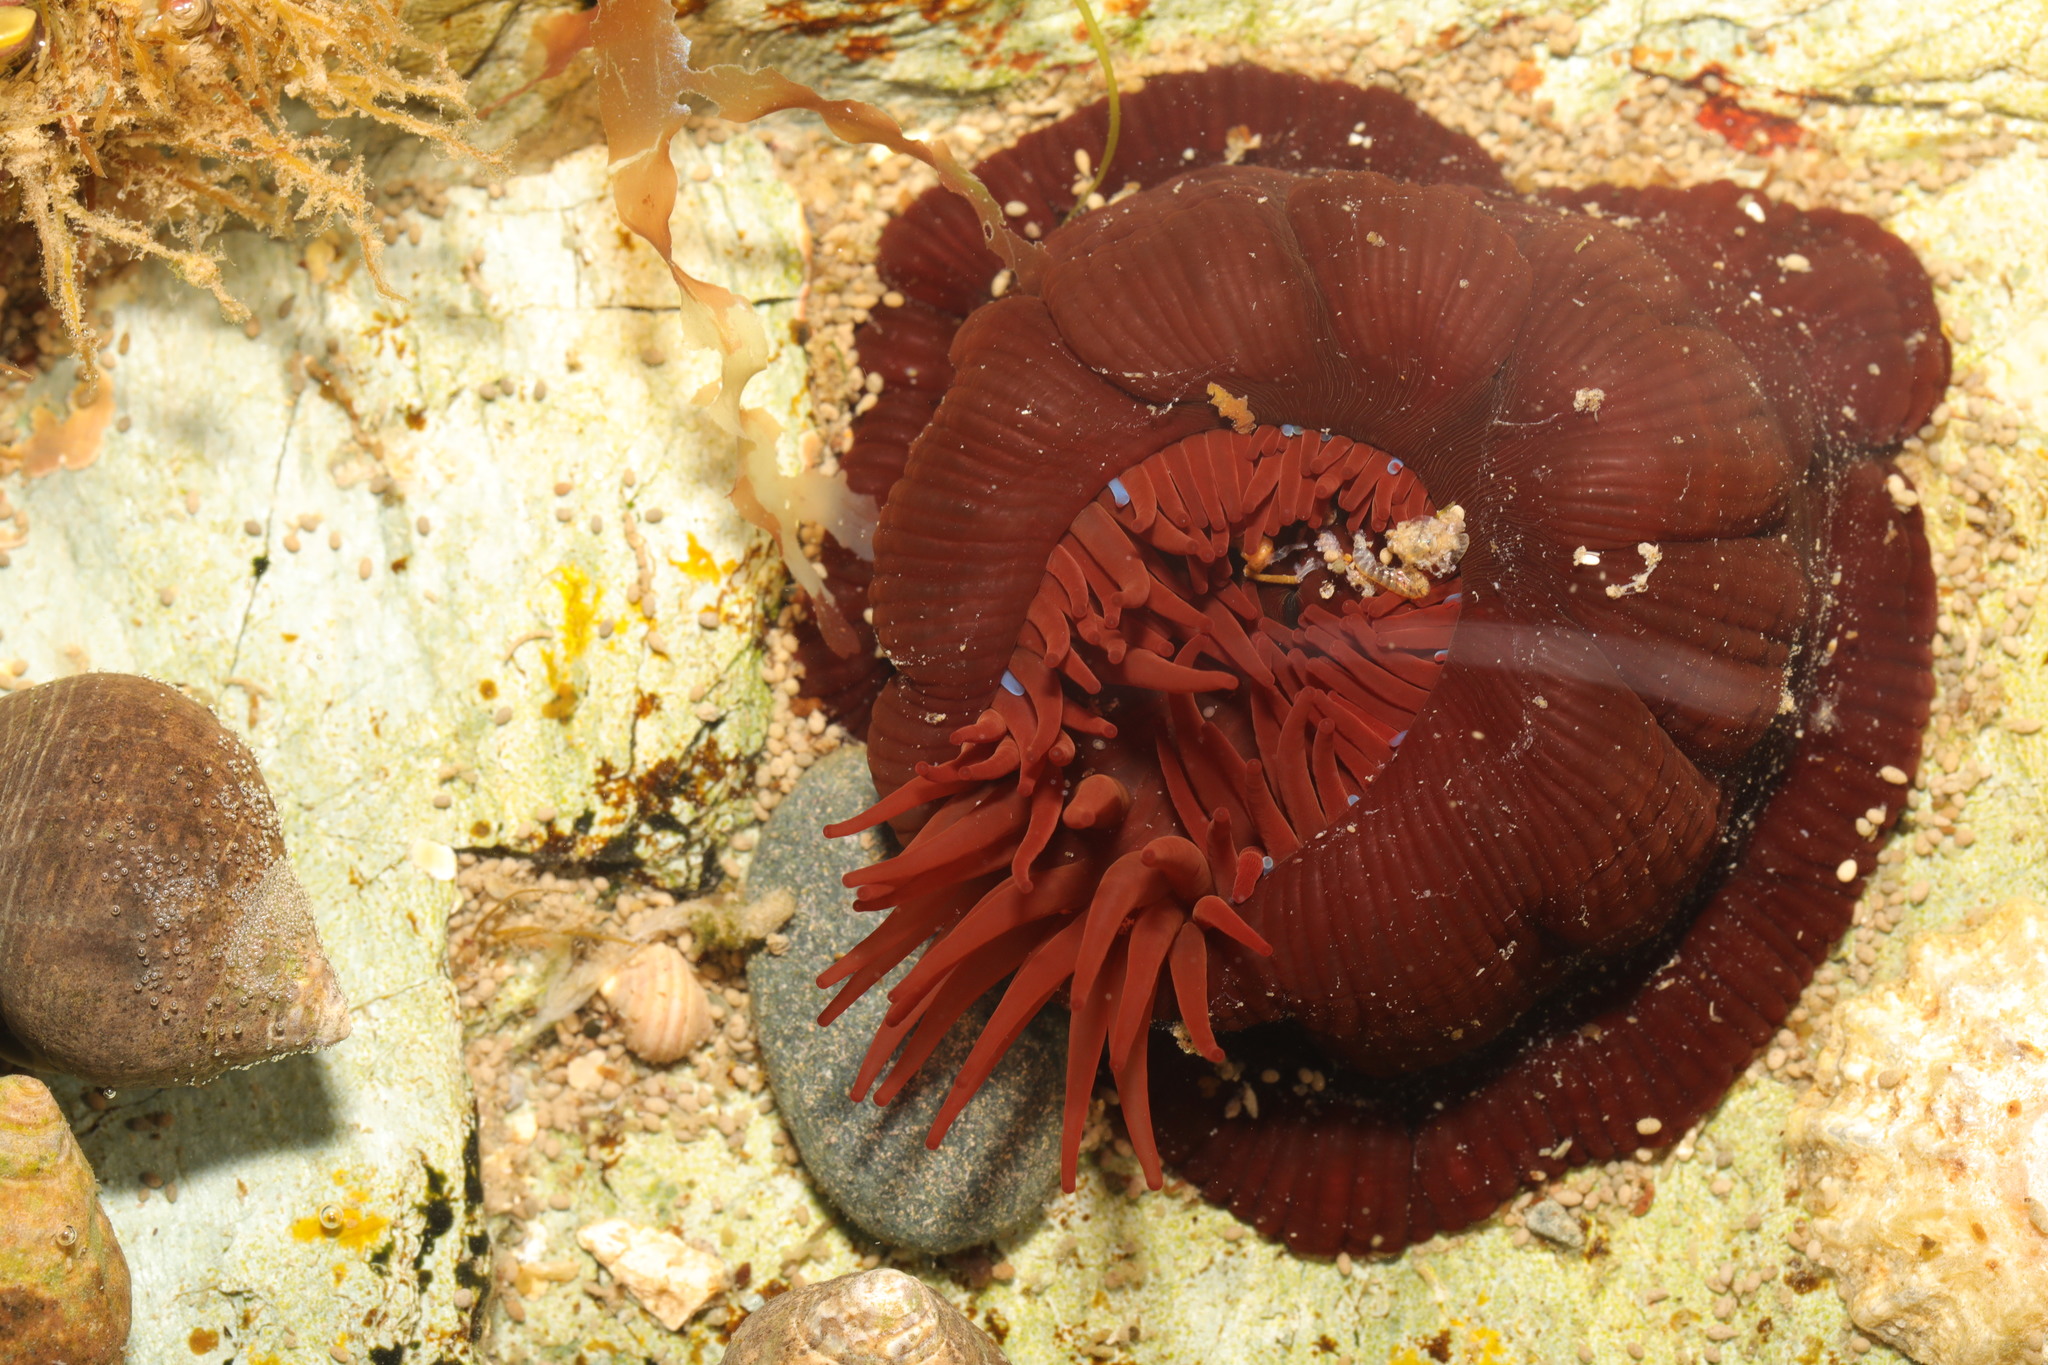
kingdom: Animalia
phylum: Cnidaria
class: Anthozoa
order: Actiniaria
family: Actiniidae
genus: Actinia
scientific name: Actinia equina
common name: Beadlet anemone
